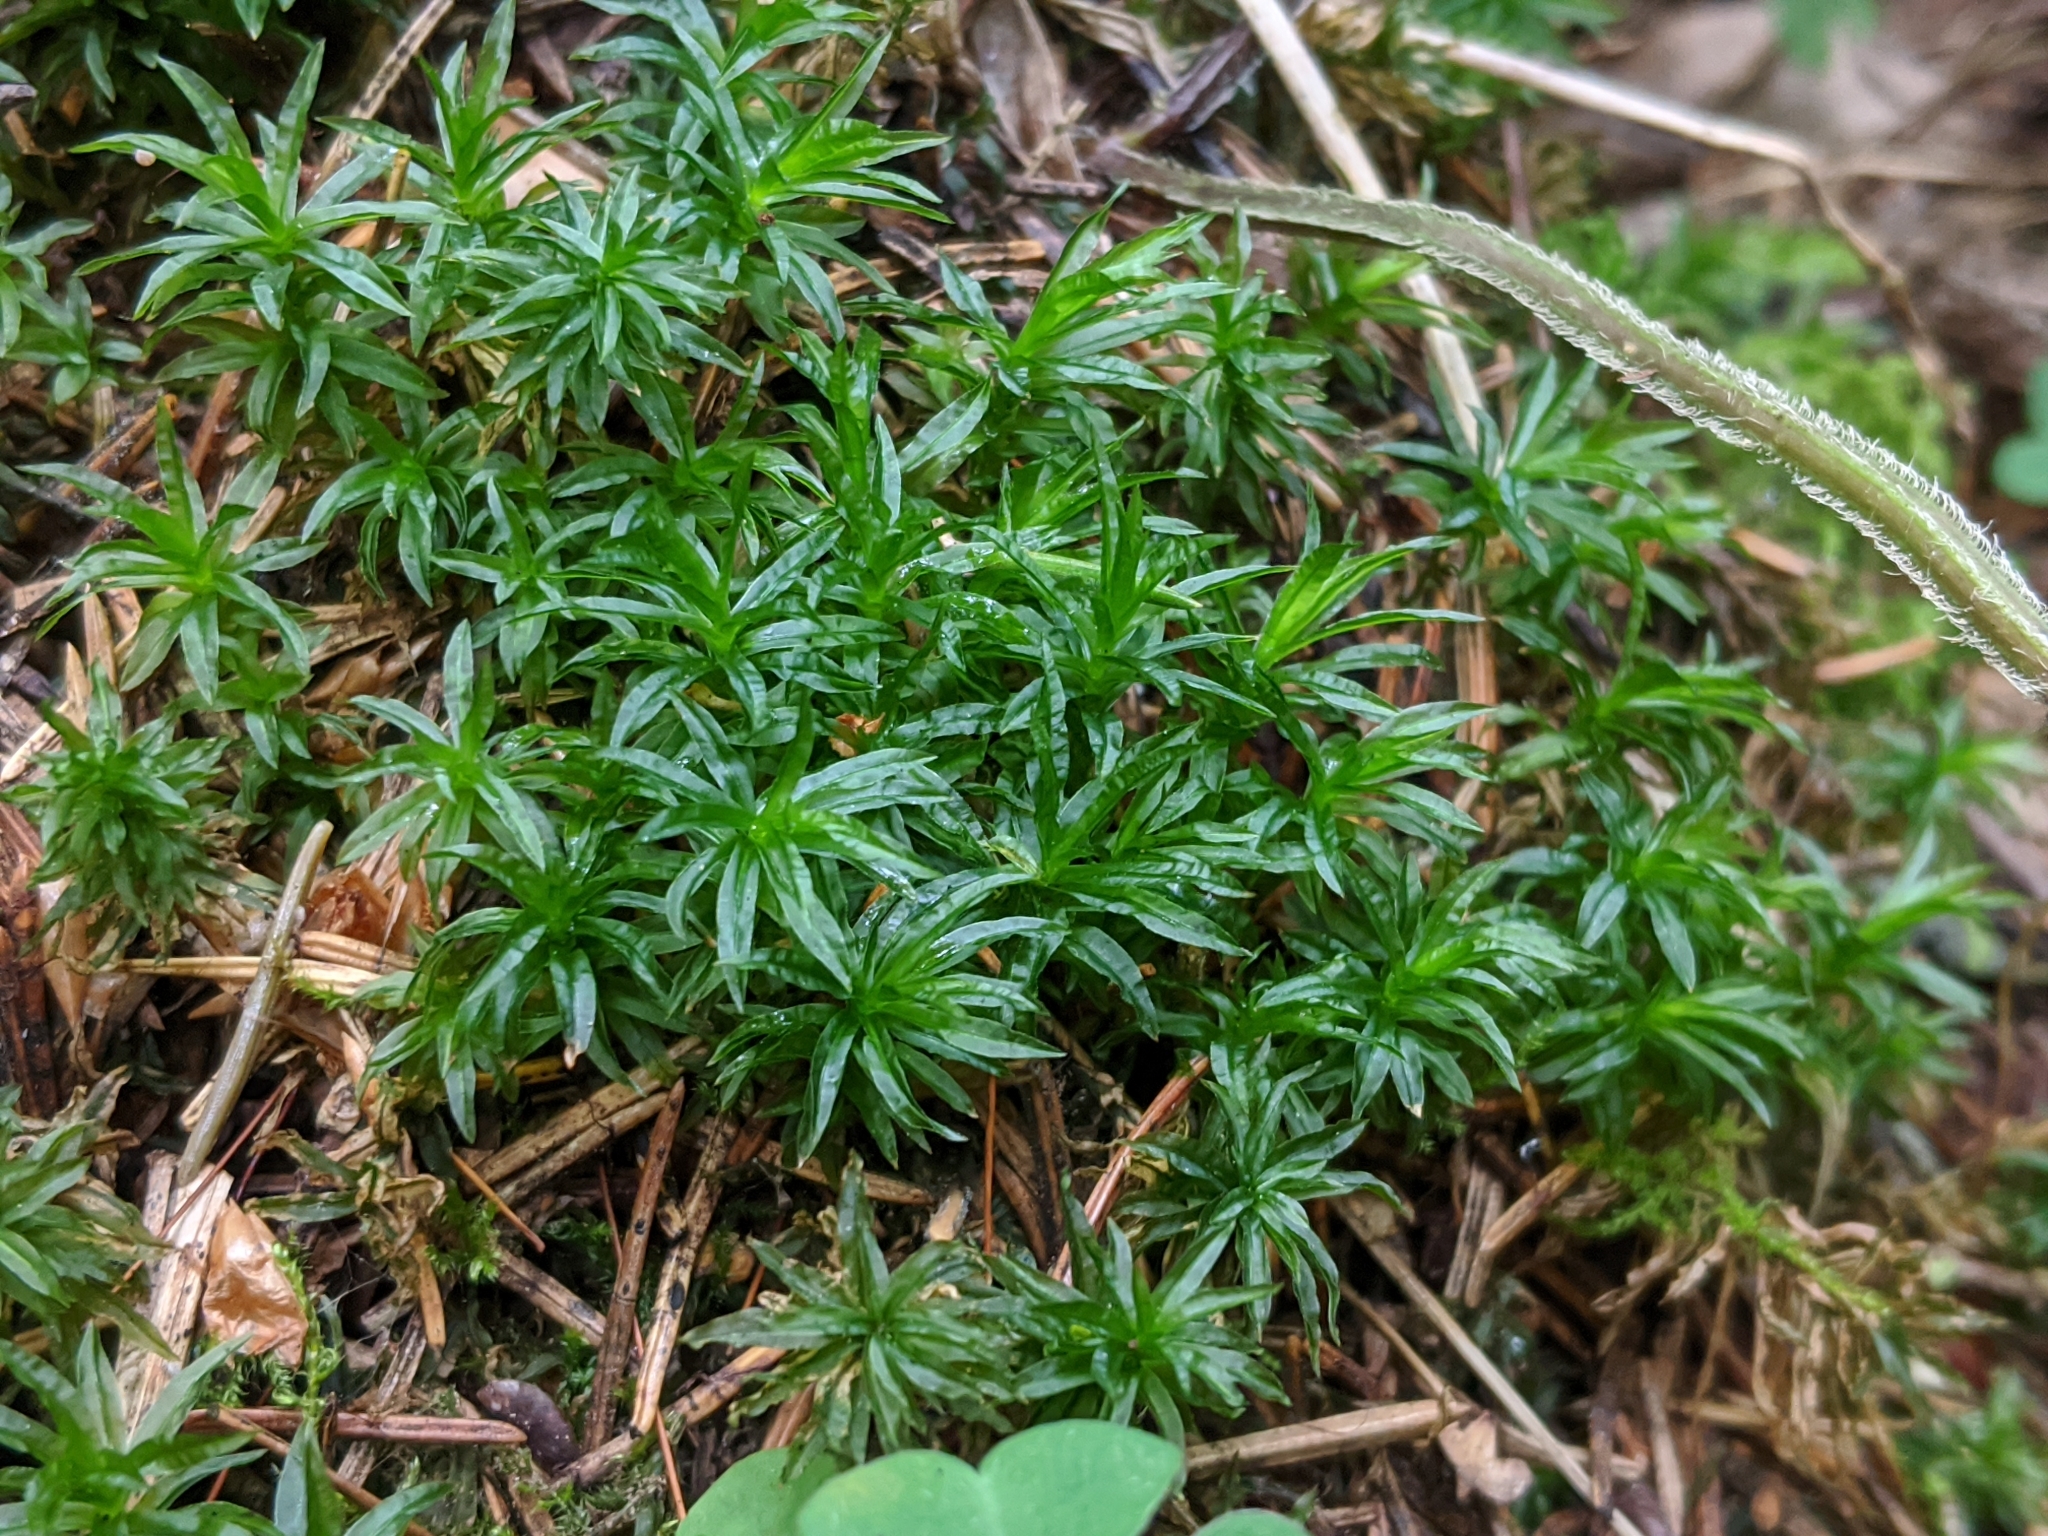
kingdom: Plantae
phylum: Bryophyta
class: Polytrichopsida
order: Polytrichales
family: Polytrichaceae
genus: Atrichum
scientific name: Atrichum undulatum
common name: Common smoothcap
